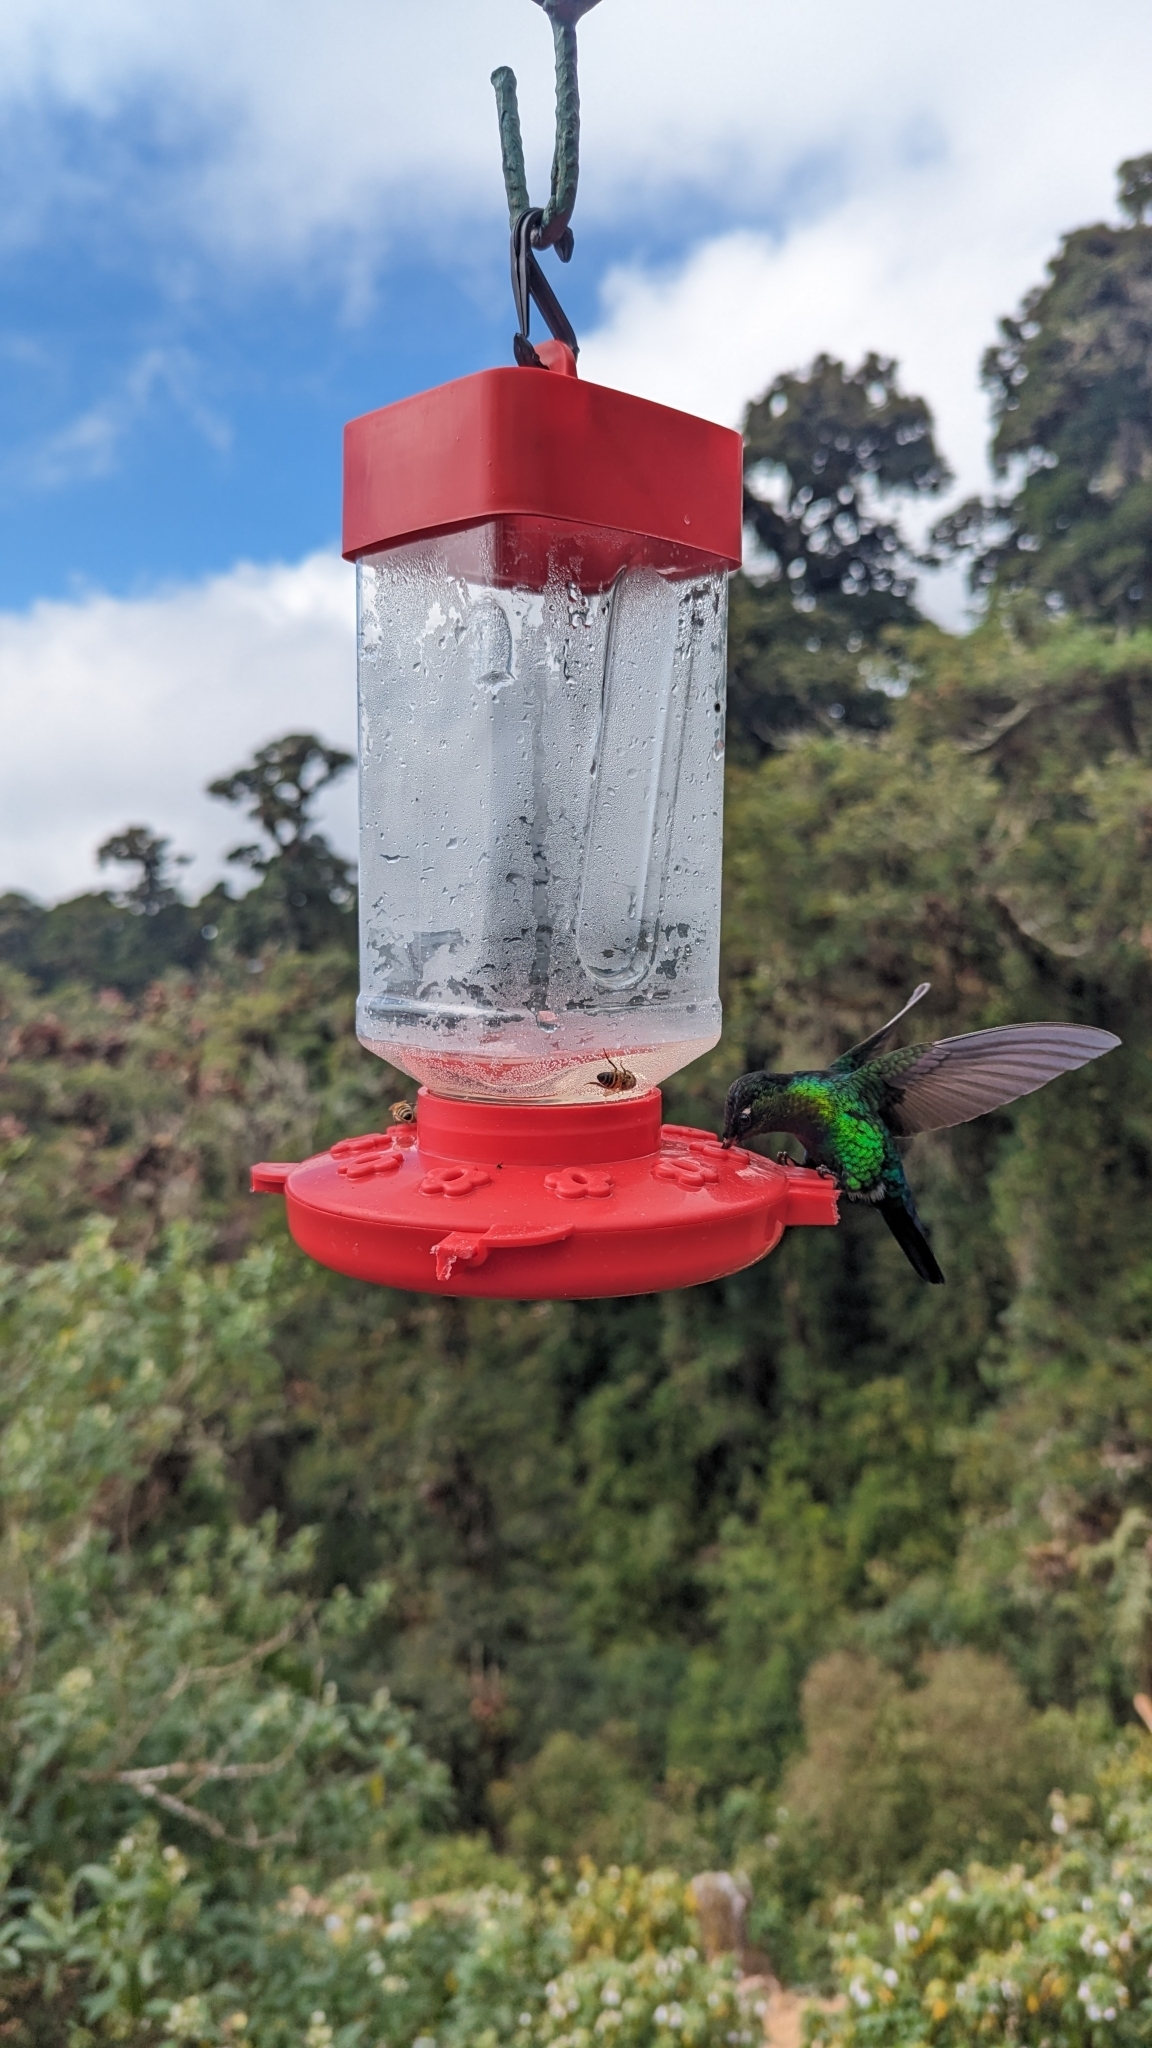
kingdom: Animalia
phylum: Chordata
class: Aves
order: Apodiformes
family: Trochilidae
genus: Panterpe
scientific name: Panterpe insignis
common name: Fiery-throated hummingbird
